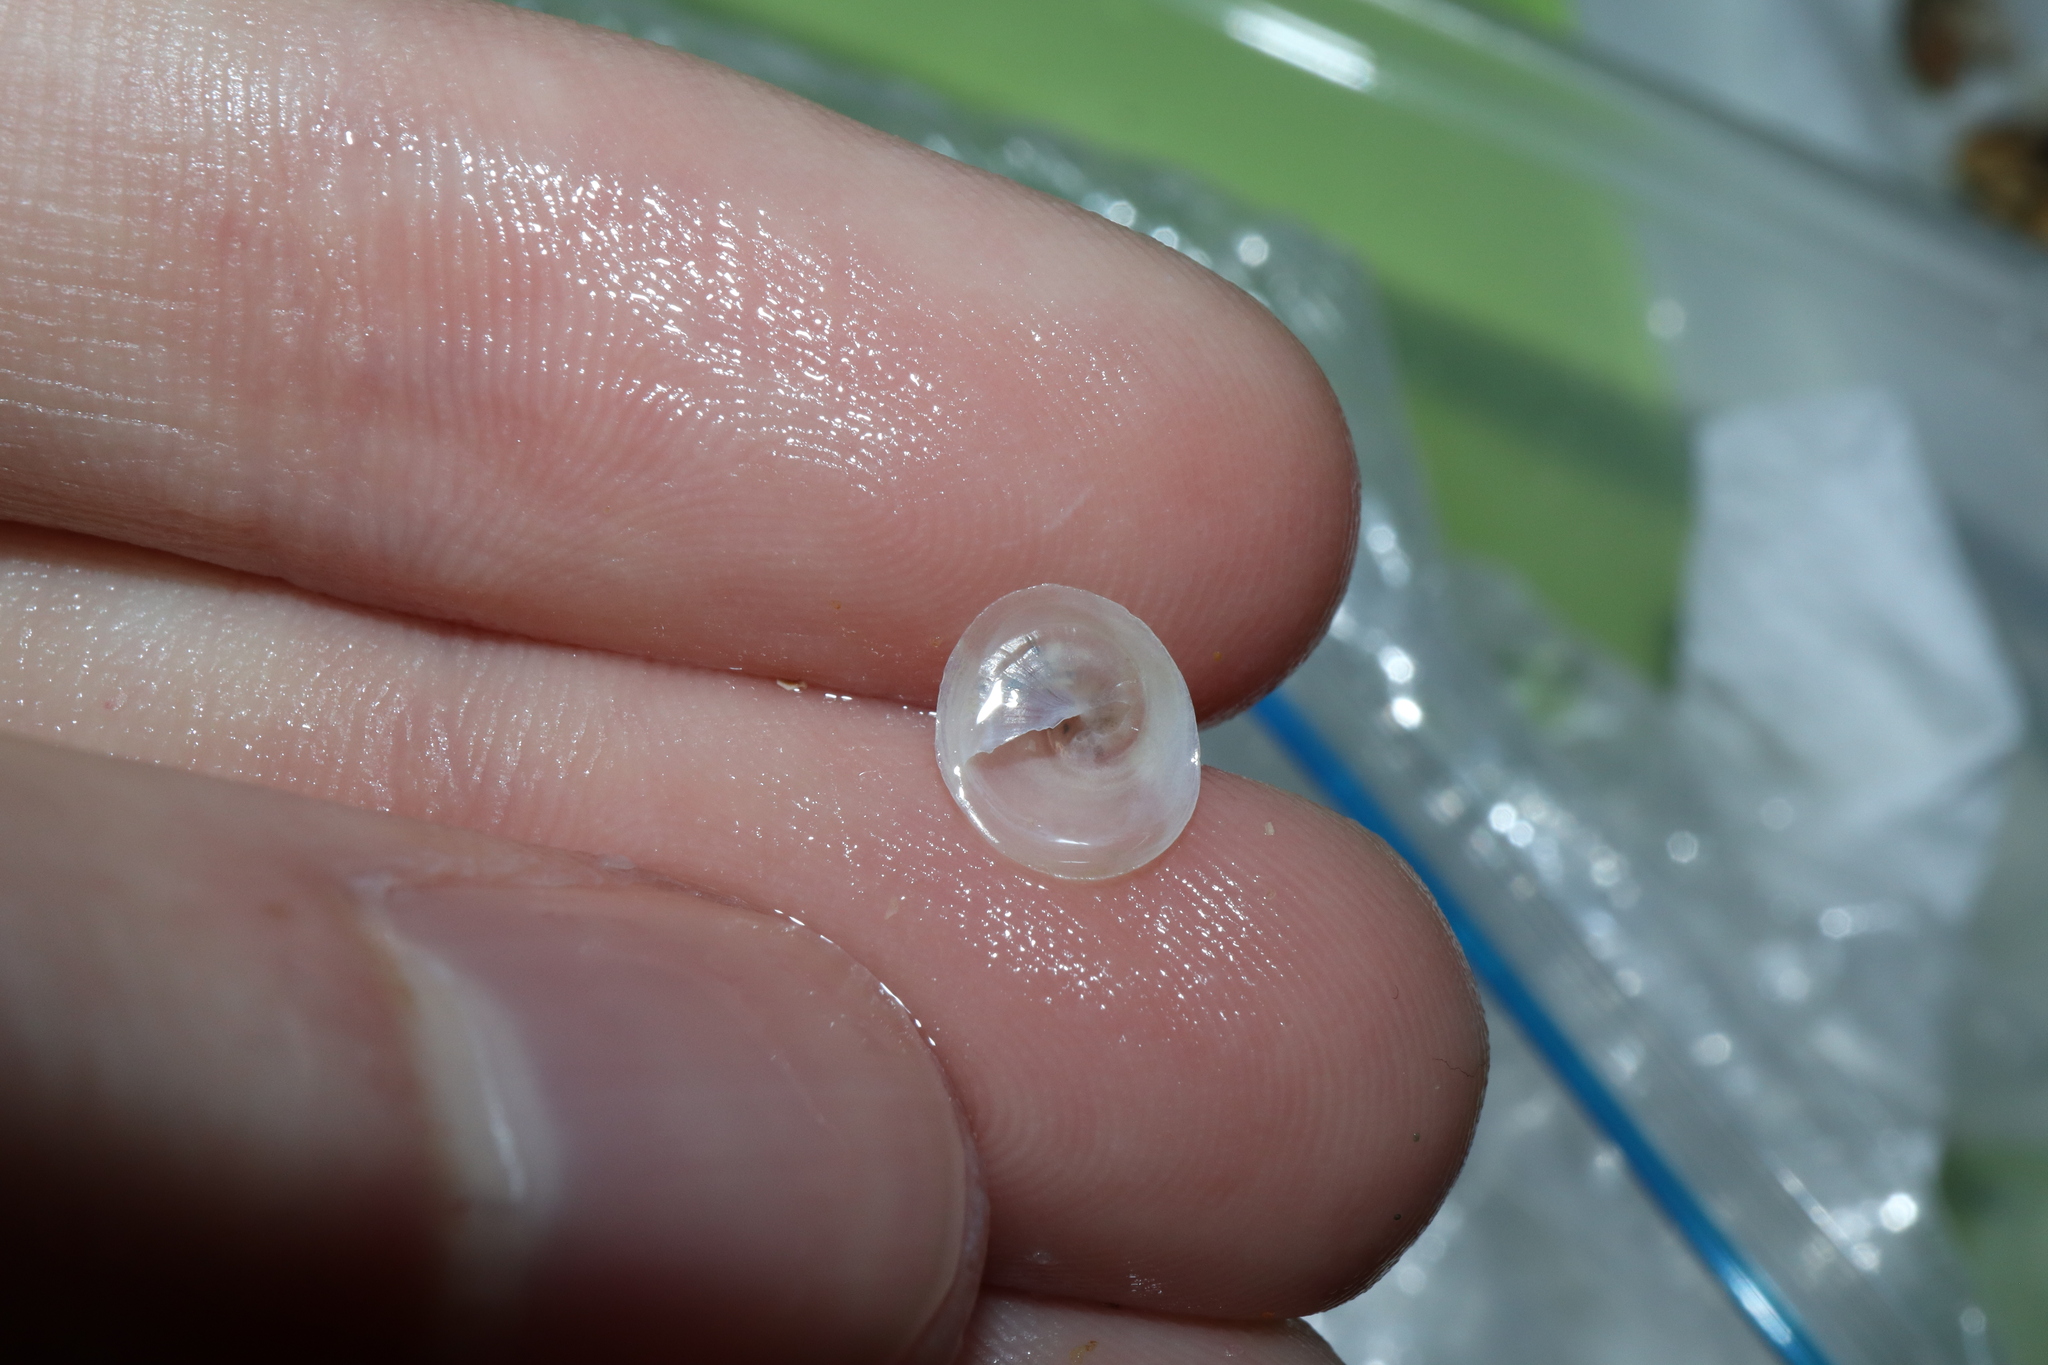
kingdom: Animalia
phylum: Mollusca
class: Gastropoda
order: Littorinimorpha
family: Calyptraeidae
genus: Sigapatella
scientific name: Sigapatella hedleyi
